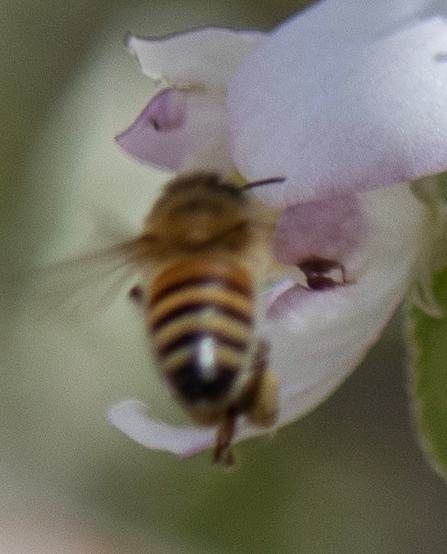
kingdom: Animalia
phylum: Arthropoda
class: Insecta
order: Hymenoptera
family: Apidae
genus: Apis
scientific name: Apis mellifera
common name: Honey bee
